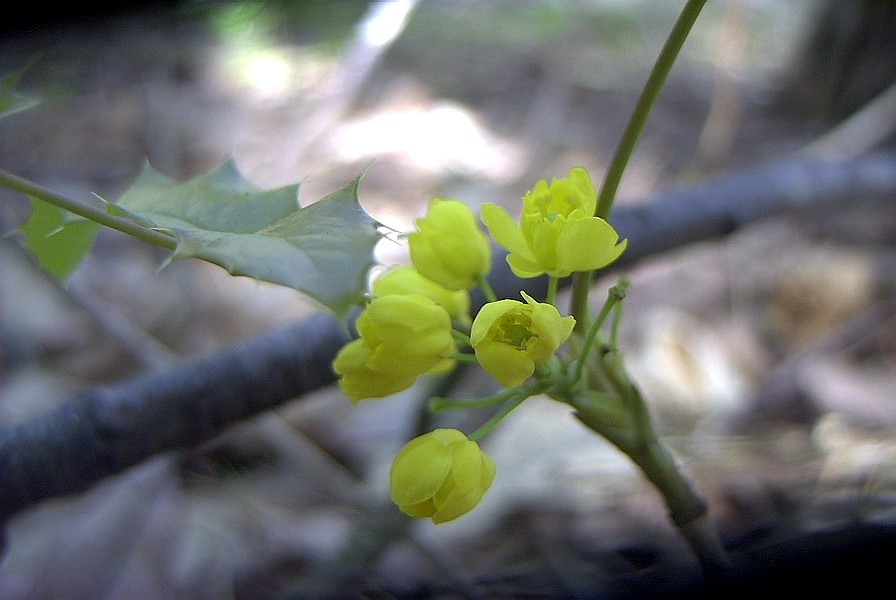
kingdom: Plantae
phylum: Tracheophyta
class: Magnoliopsida
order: Ranunculales
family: Berberidaceae
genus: Mahonia
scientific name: Mahonia aquifolium
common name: Oregon-grape
